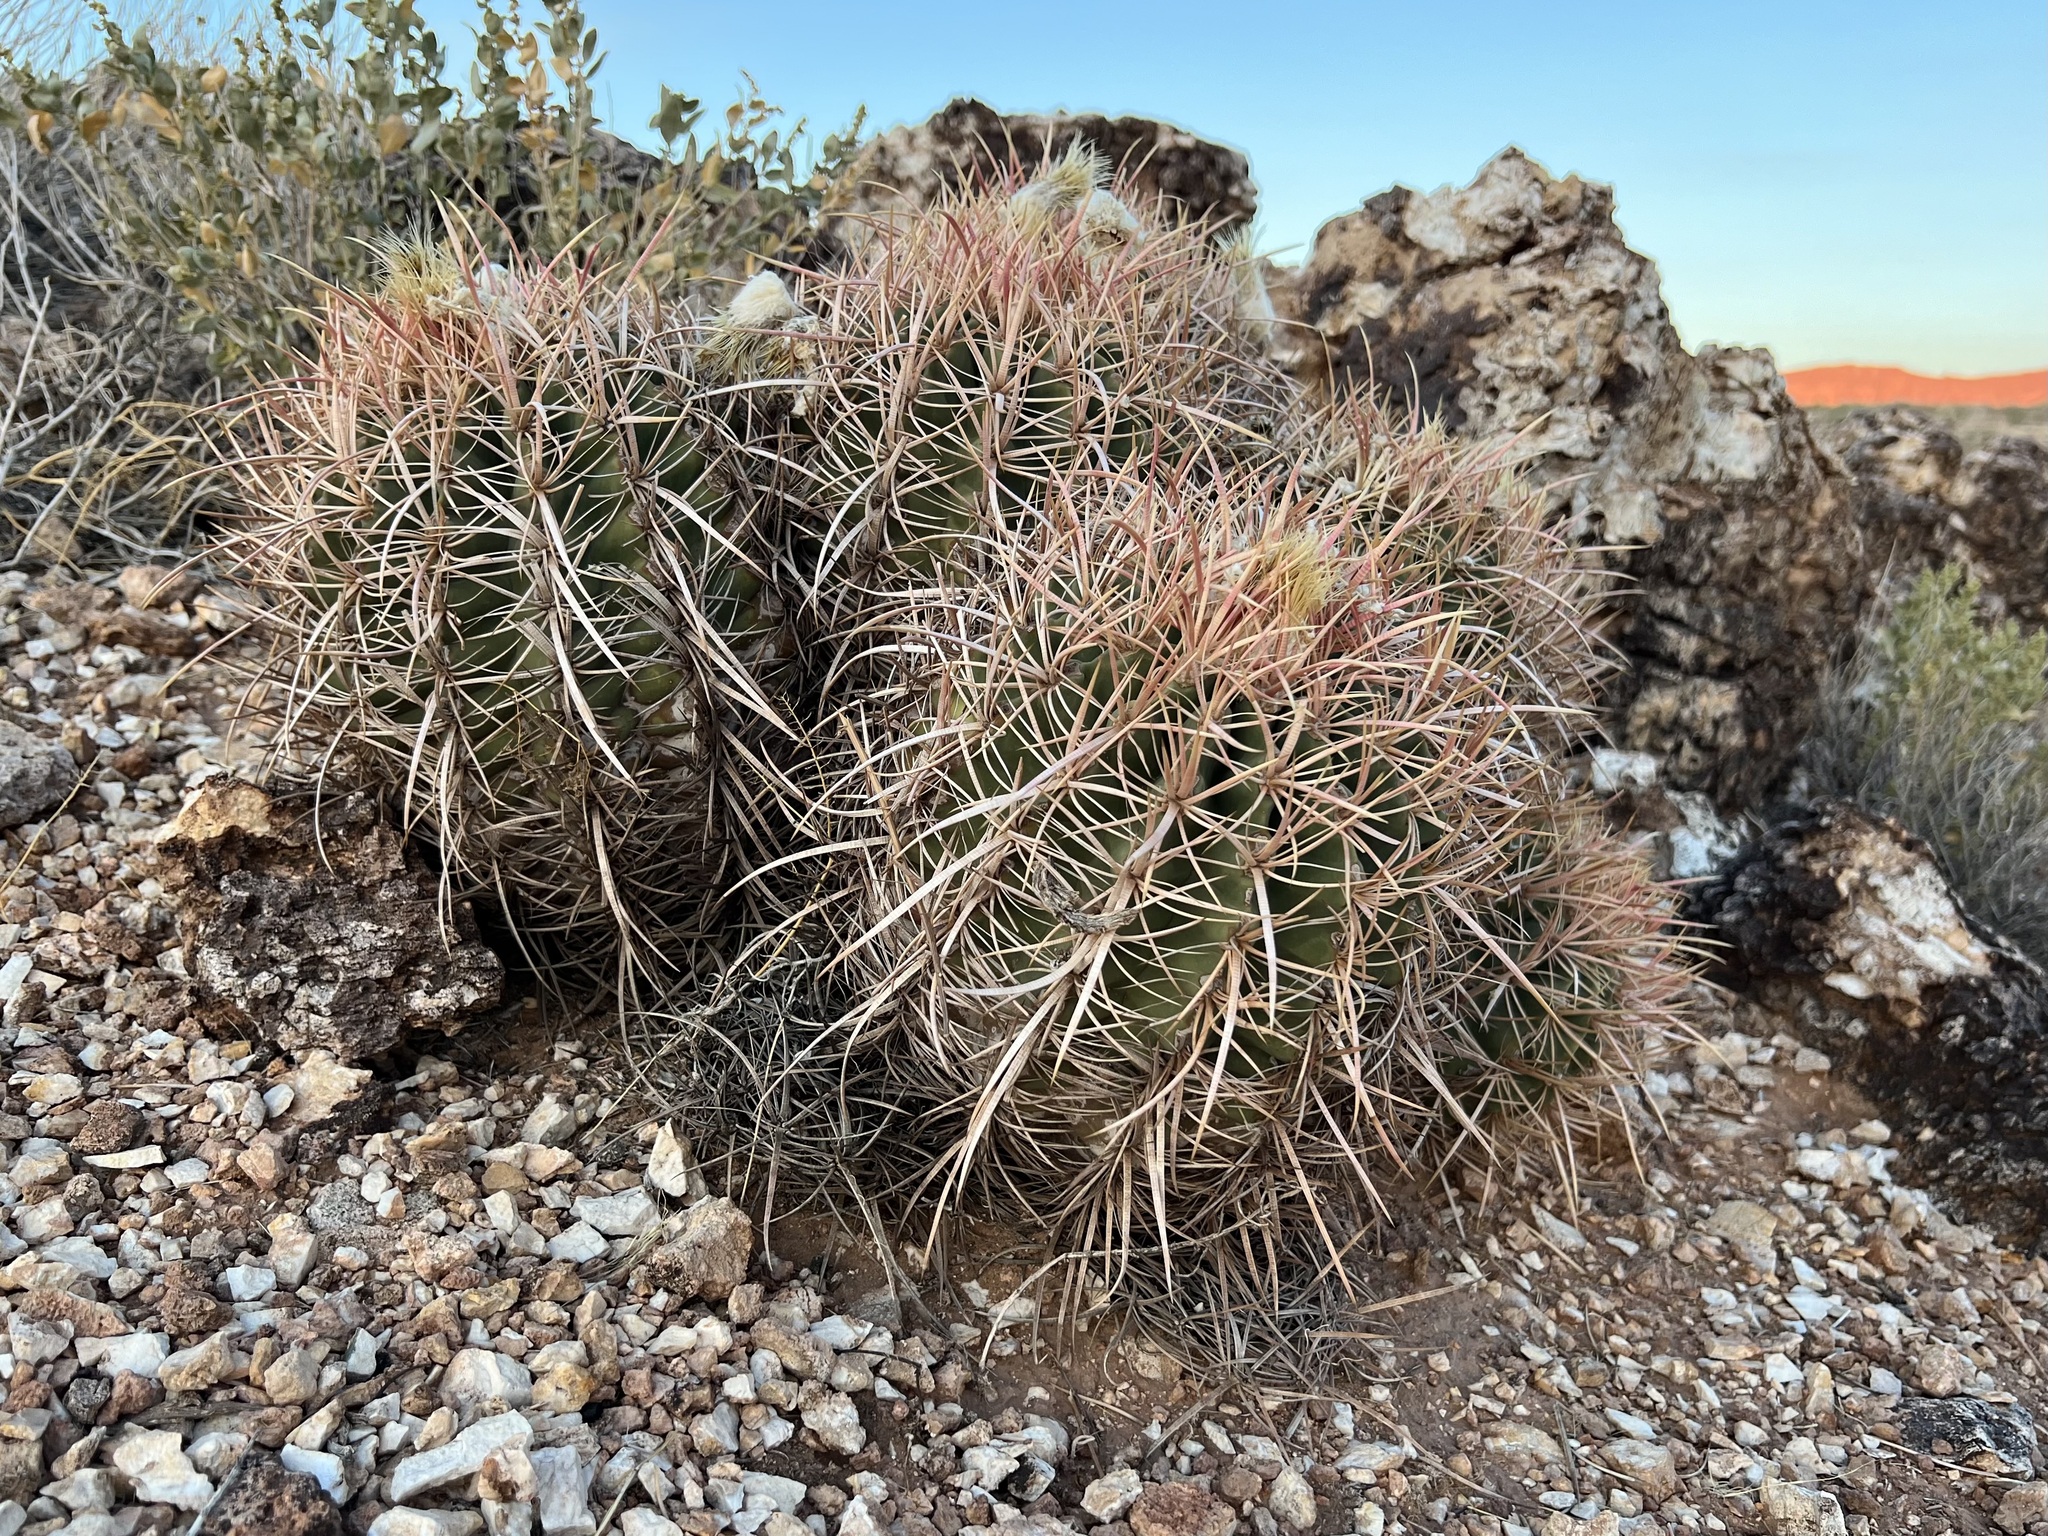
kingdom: Plantae
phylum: Tracheophyta
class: Magnoliopsida
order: Caryophyllales
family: Cactaceae
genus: Echinocactus
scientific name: Echinocactus polycephalus
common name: Cottontop cactus
